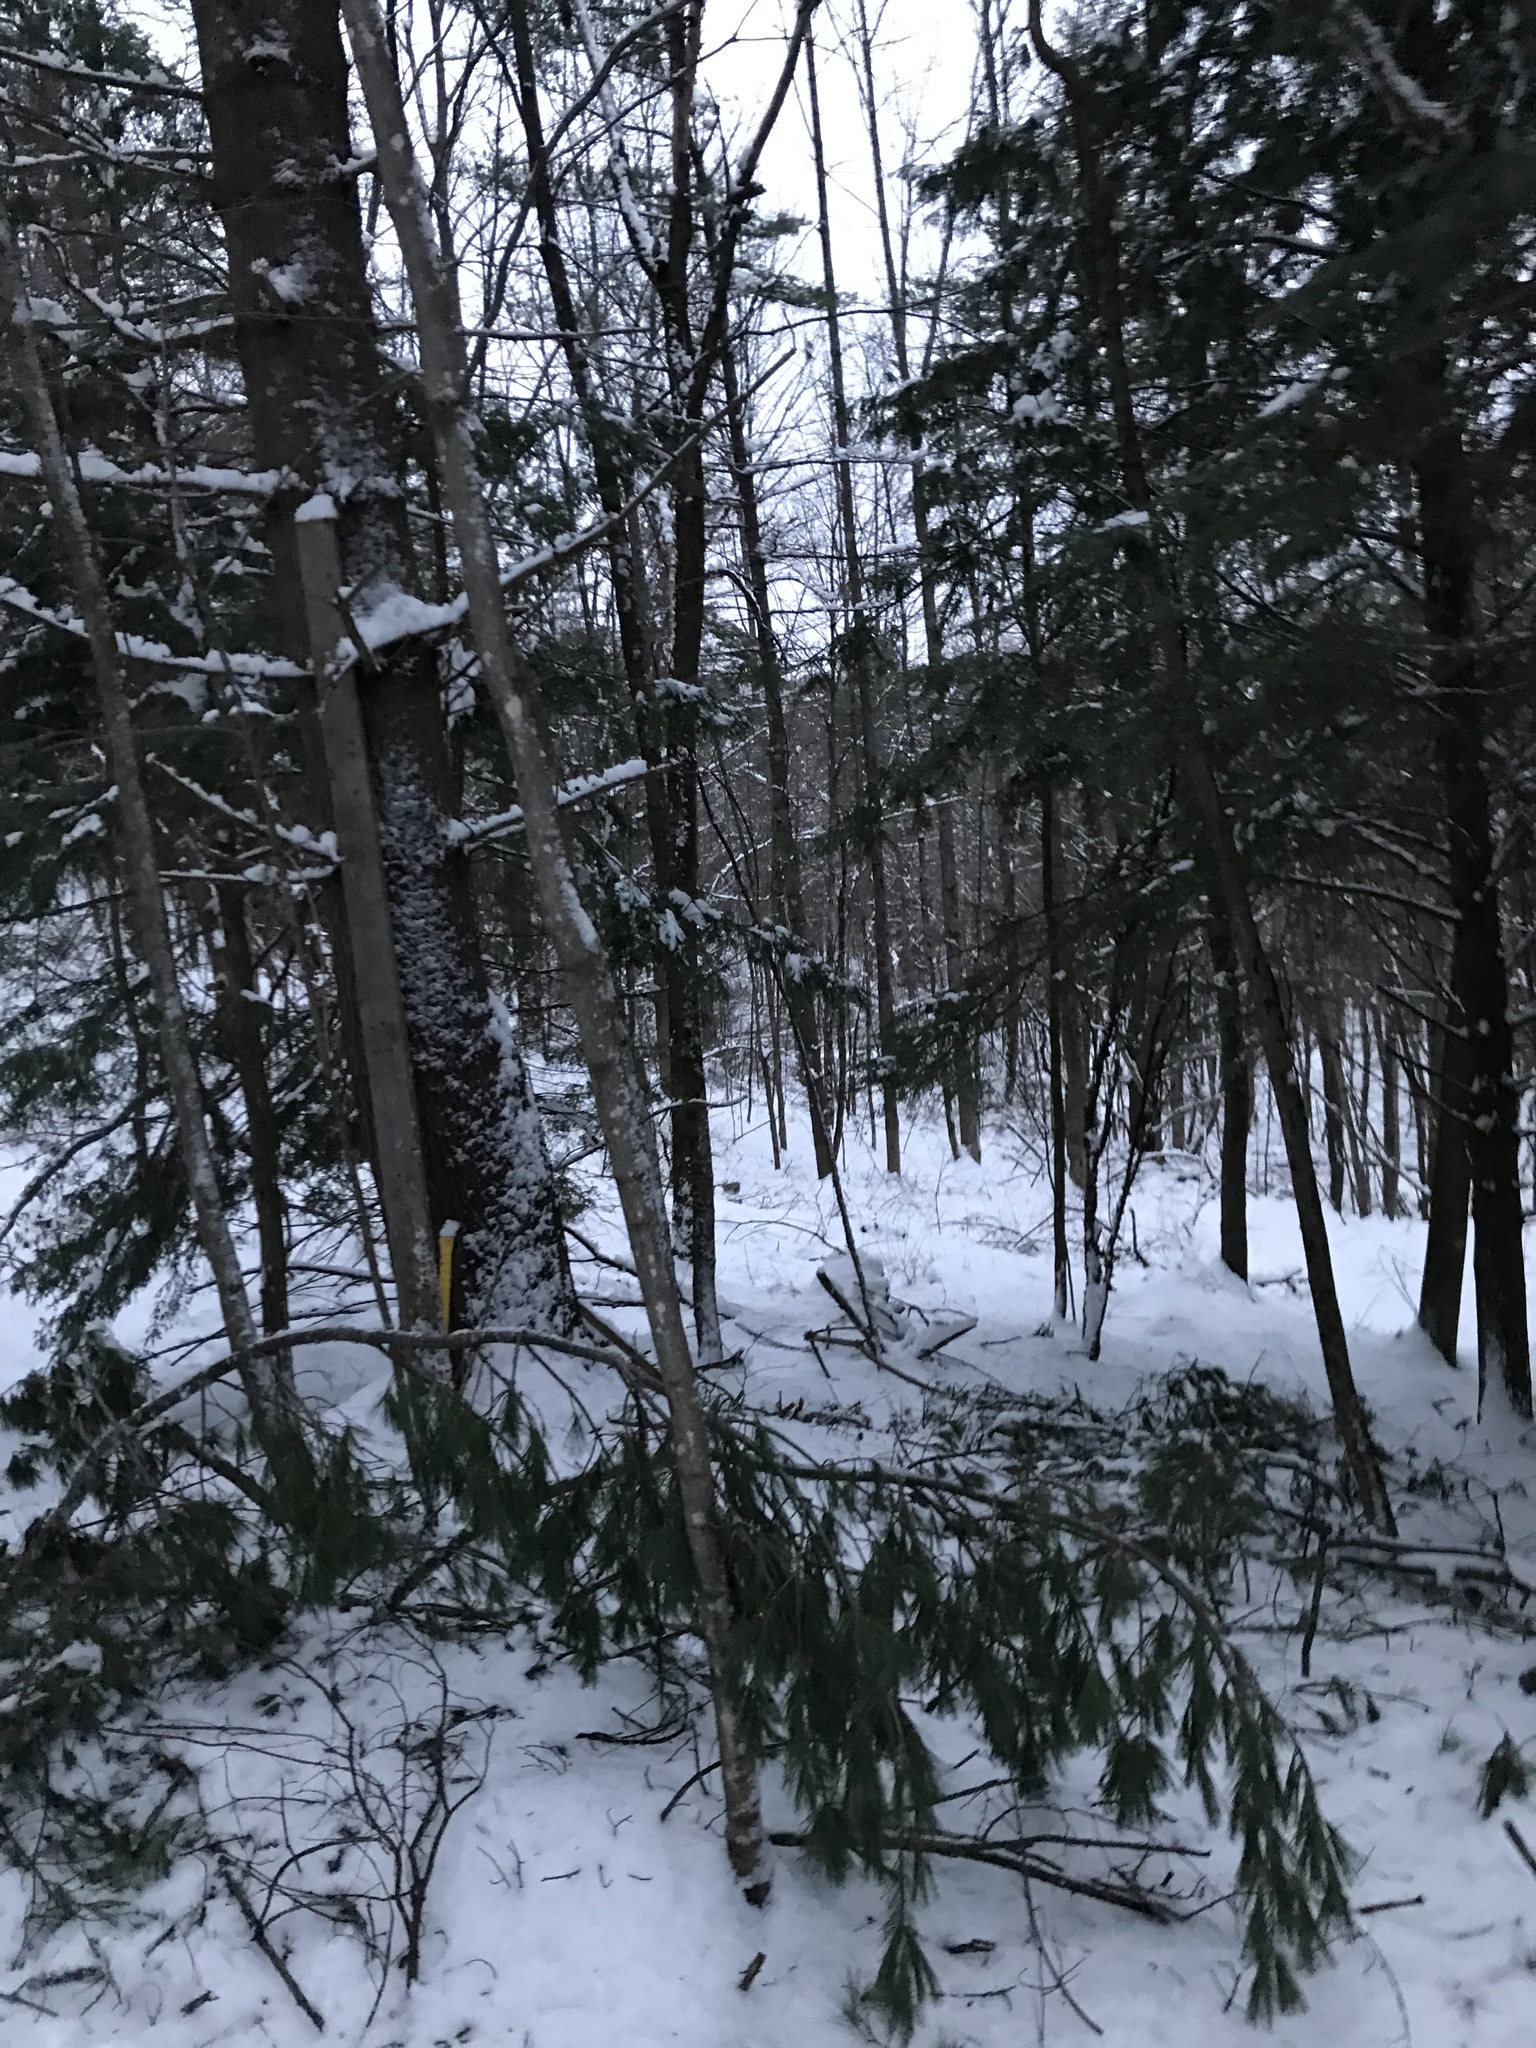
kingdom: Plantae
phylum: Tracheophyta
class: Pinopsida
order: Pinales
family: Pinaceae
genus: Pinus
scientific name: Pinus strobus
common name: Weymouth pine
